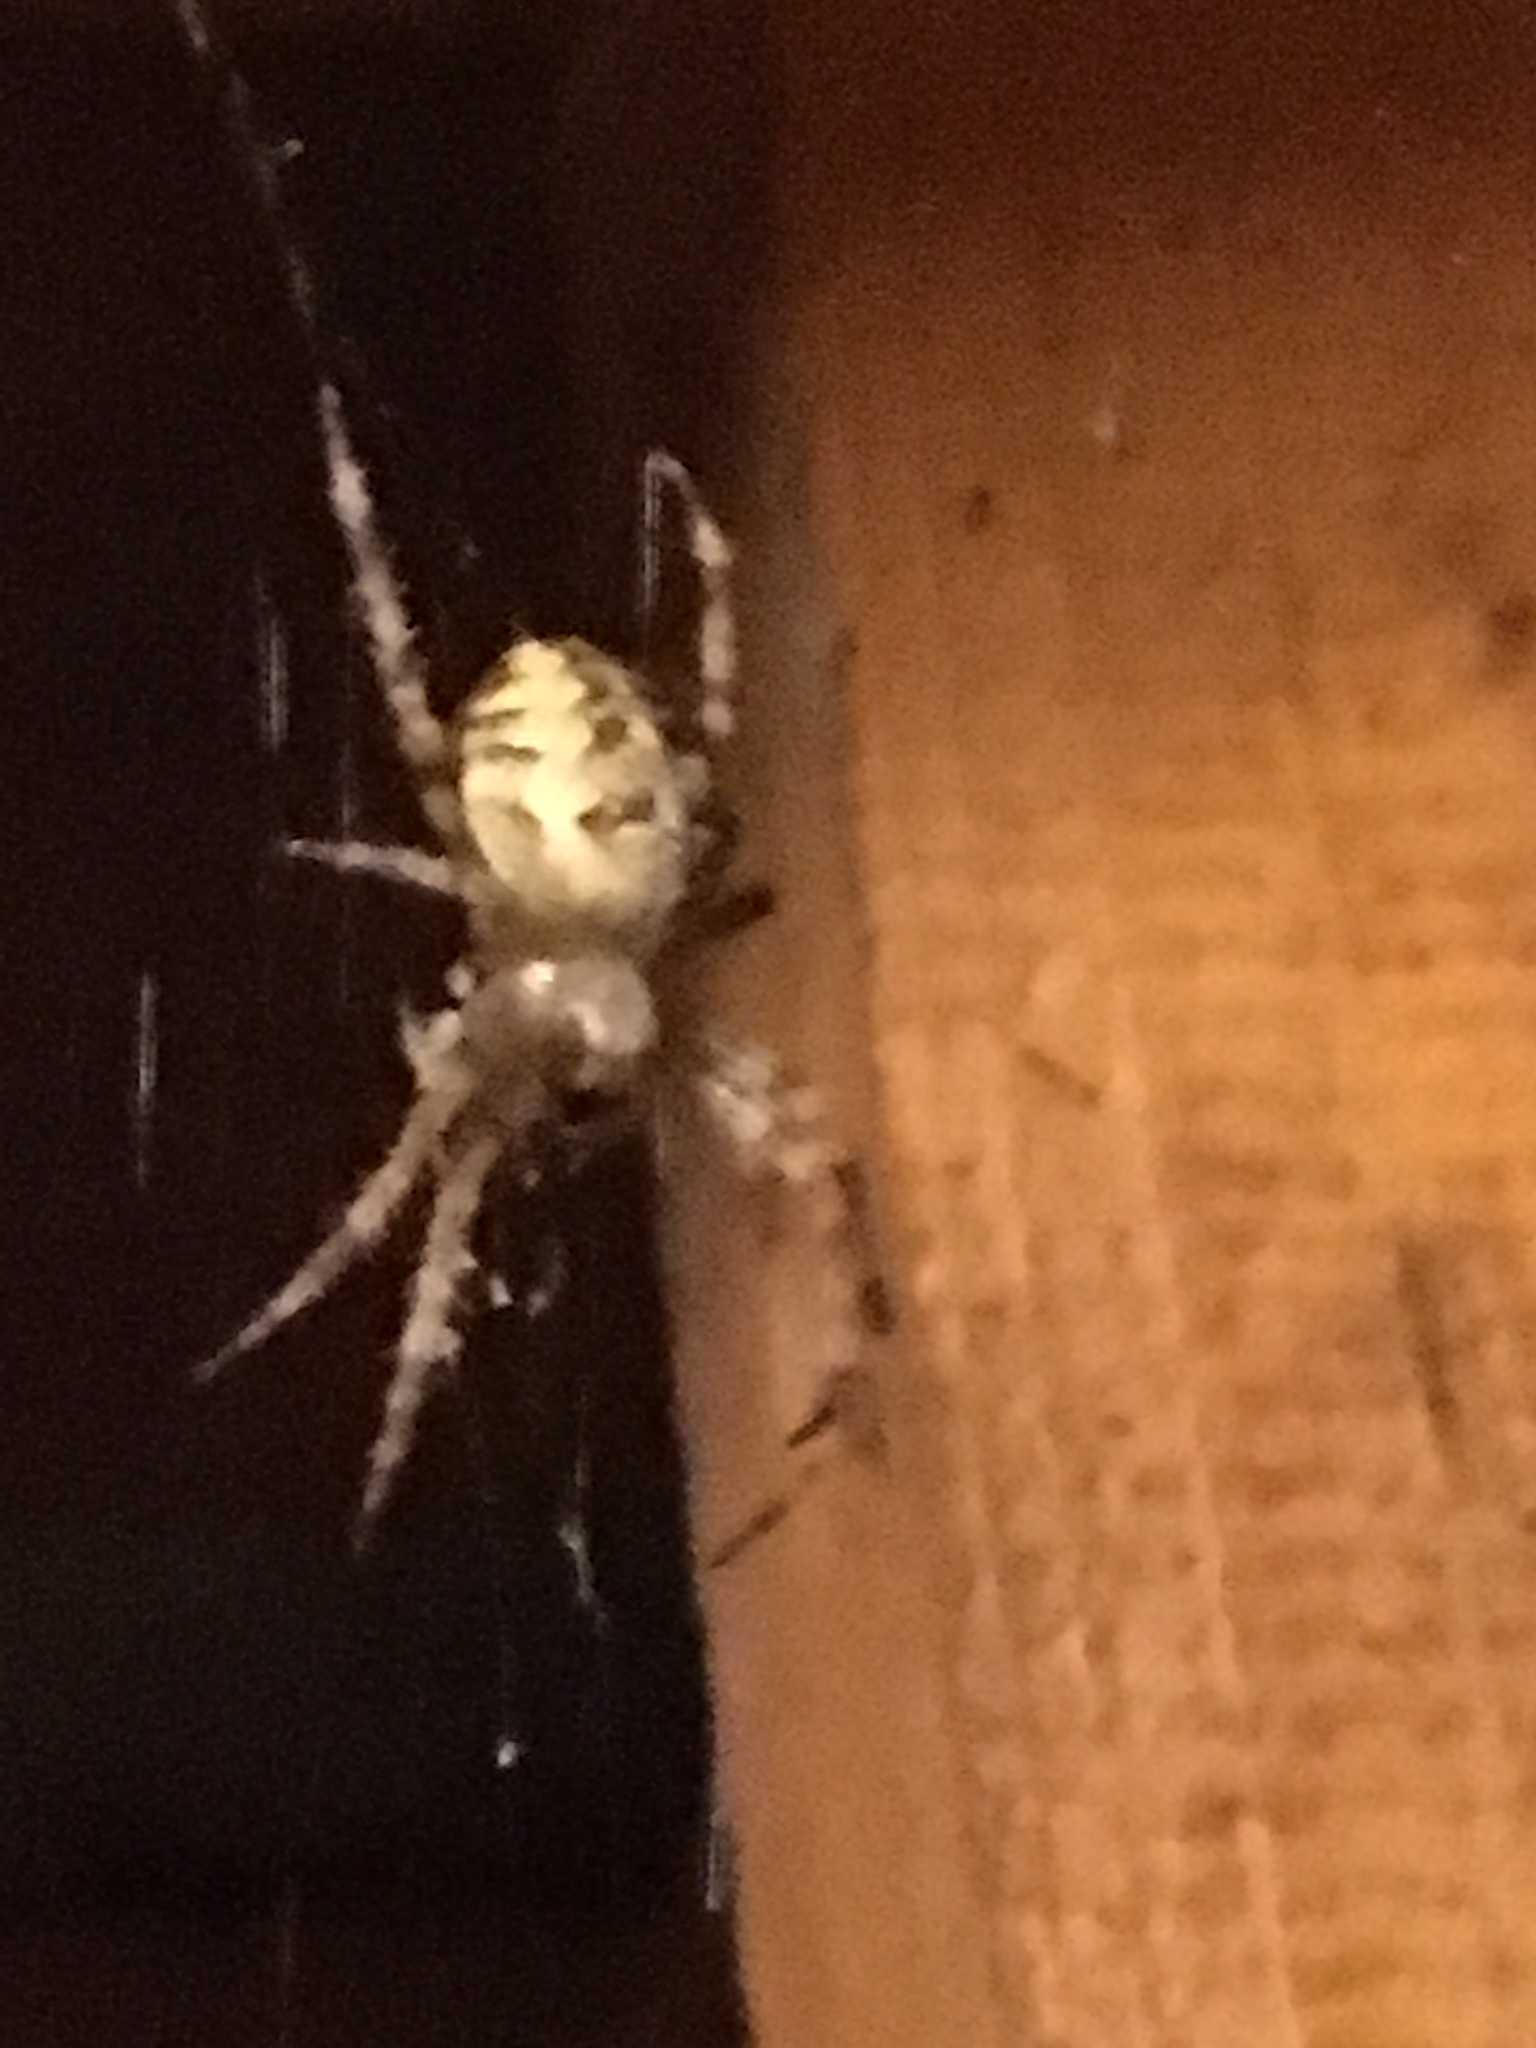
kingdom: Animalia
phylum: Arthropoda
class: Arachnida
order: Araneae
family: Araneidae
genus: Araneus
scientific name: Araneus diadematus
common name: Cross orbweaver
